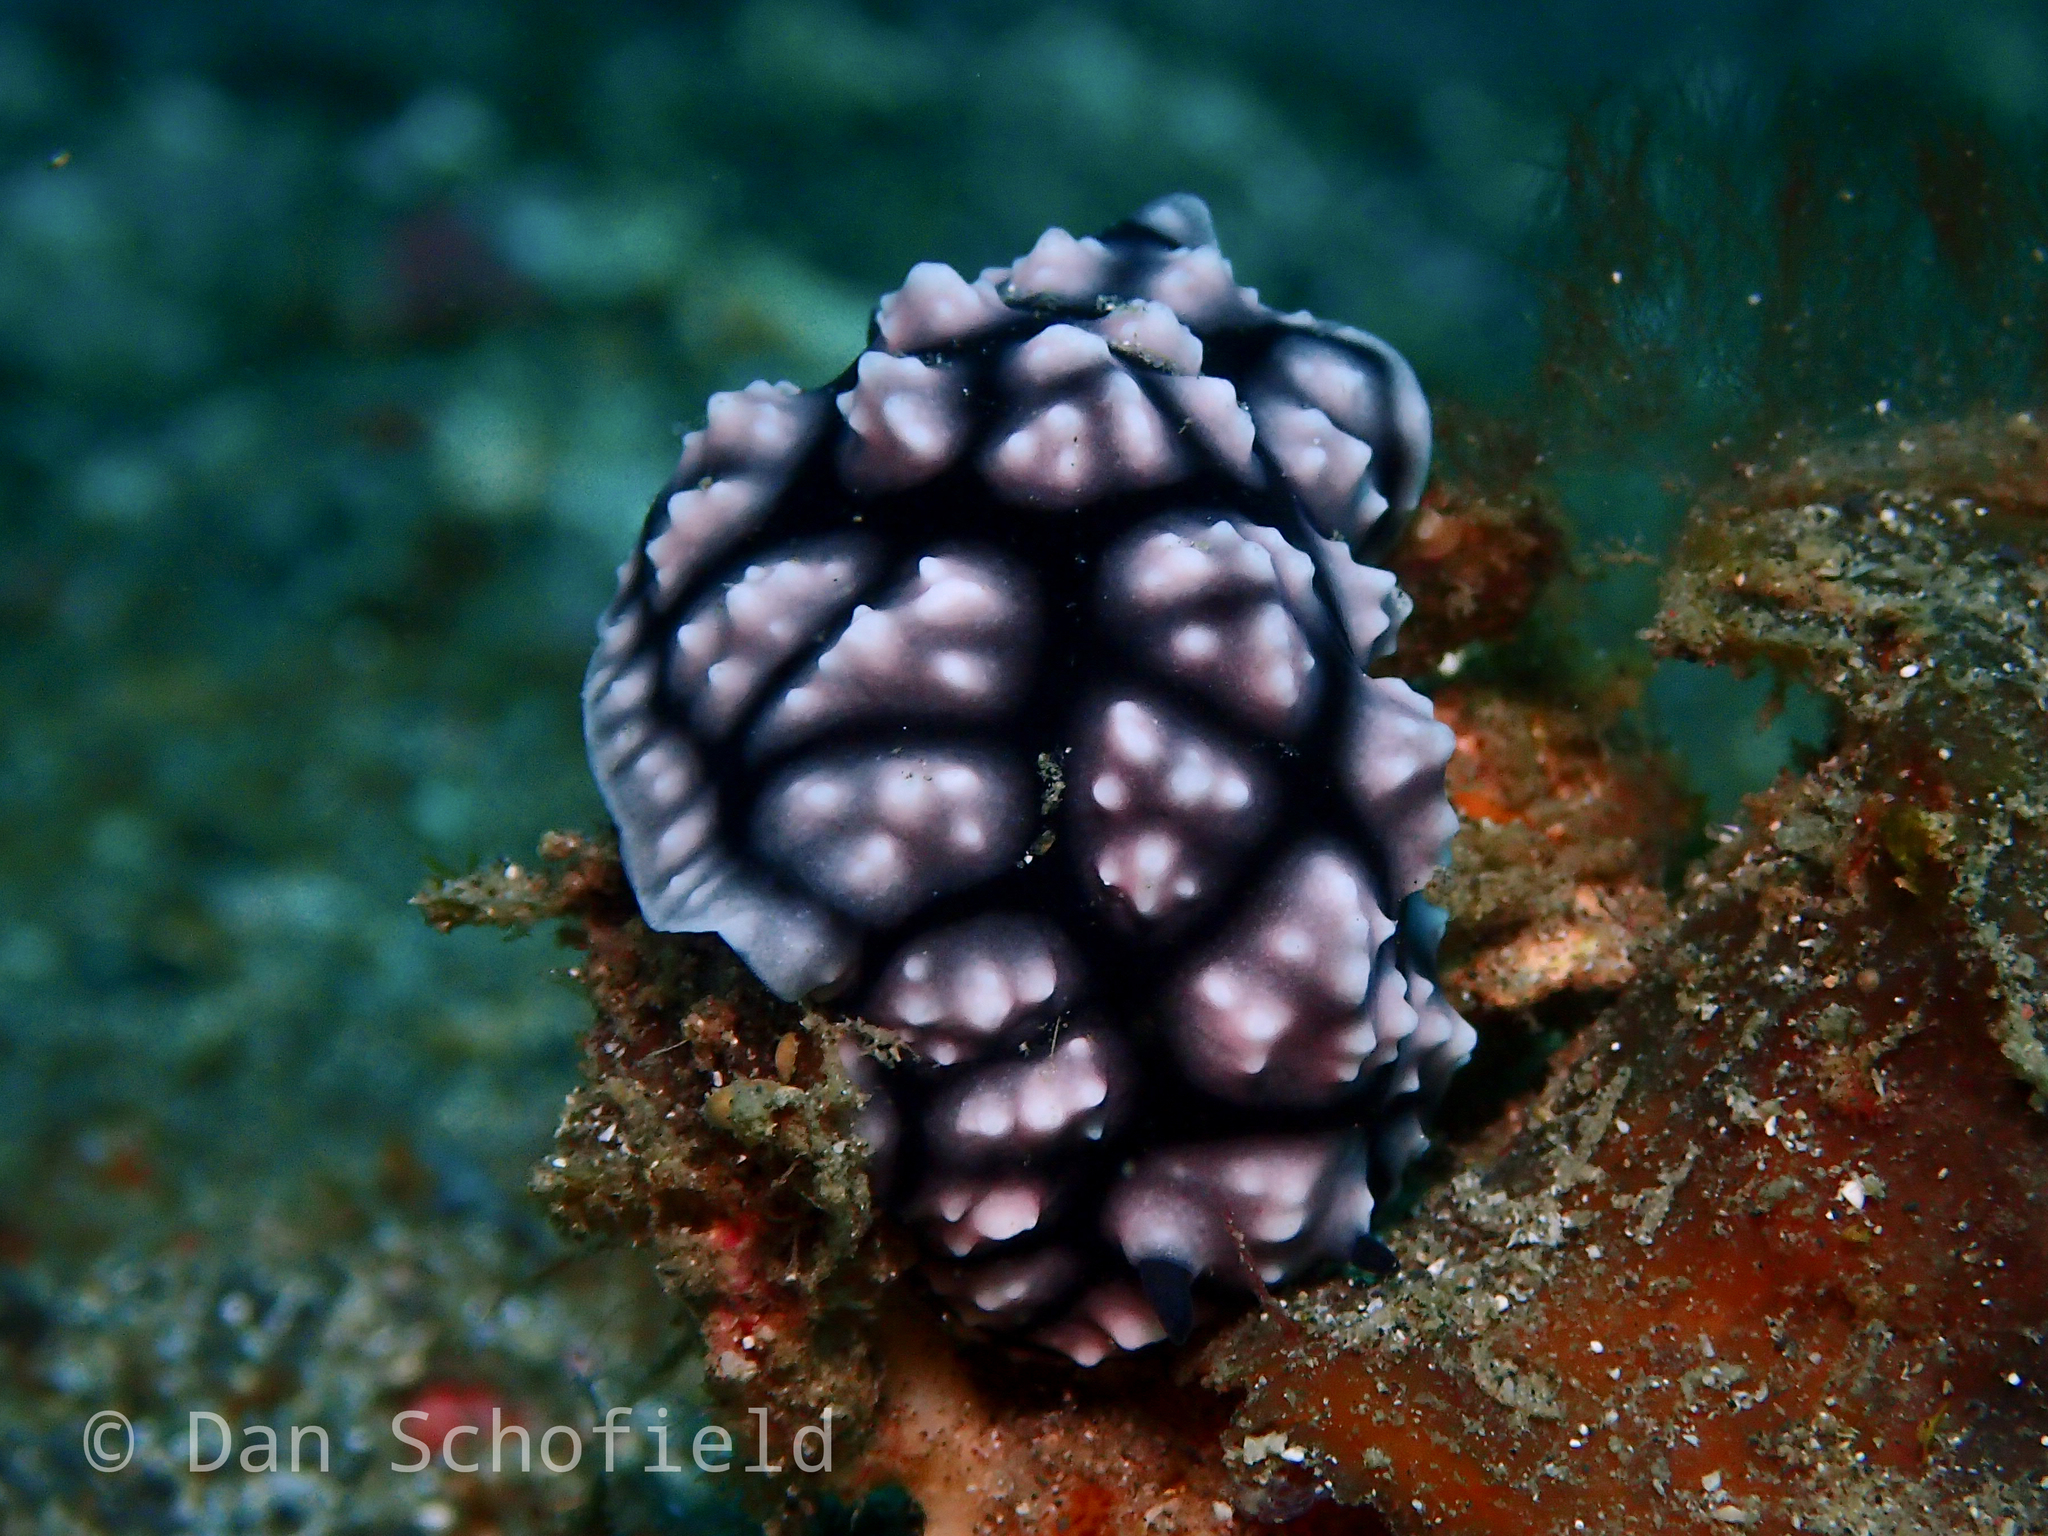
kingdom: Animalia
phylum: Mollusca
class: Gastropoda
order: Nudibranchia
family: Phyllidiidae
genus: Phyllidiella
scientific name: Phyllidiella pustulosa
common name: Pustular phyllidia
